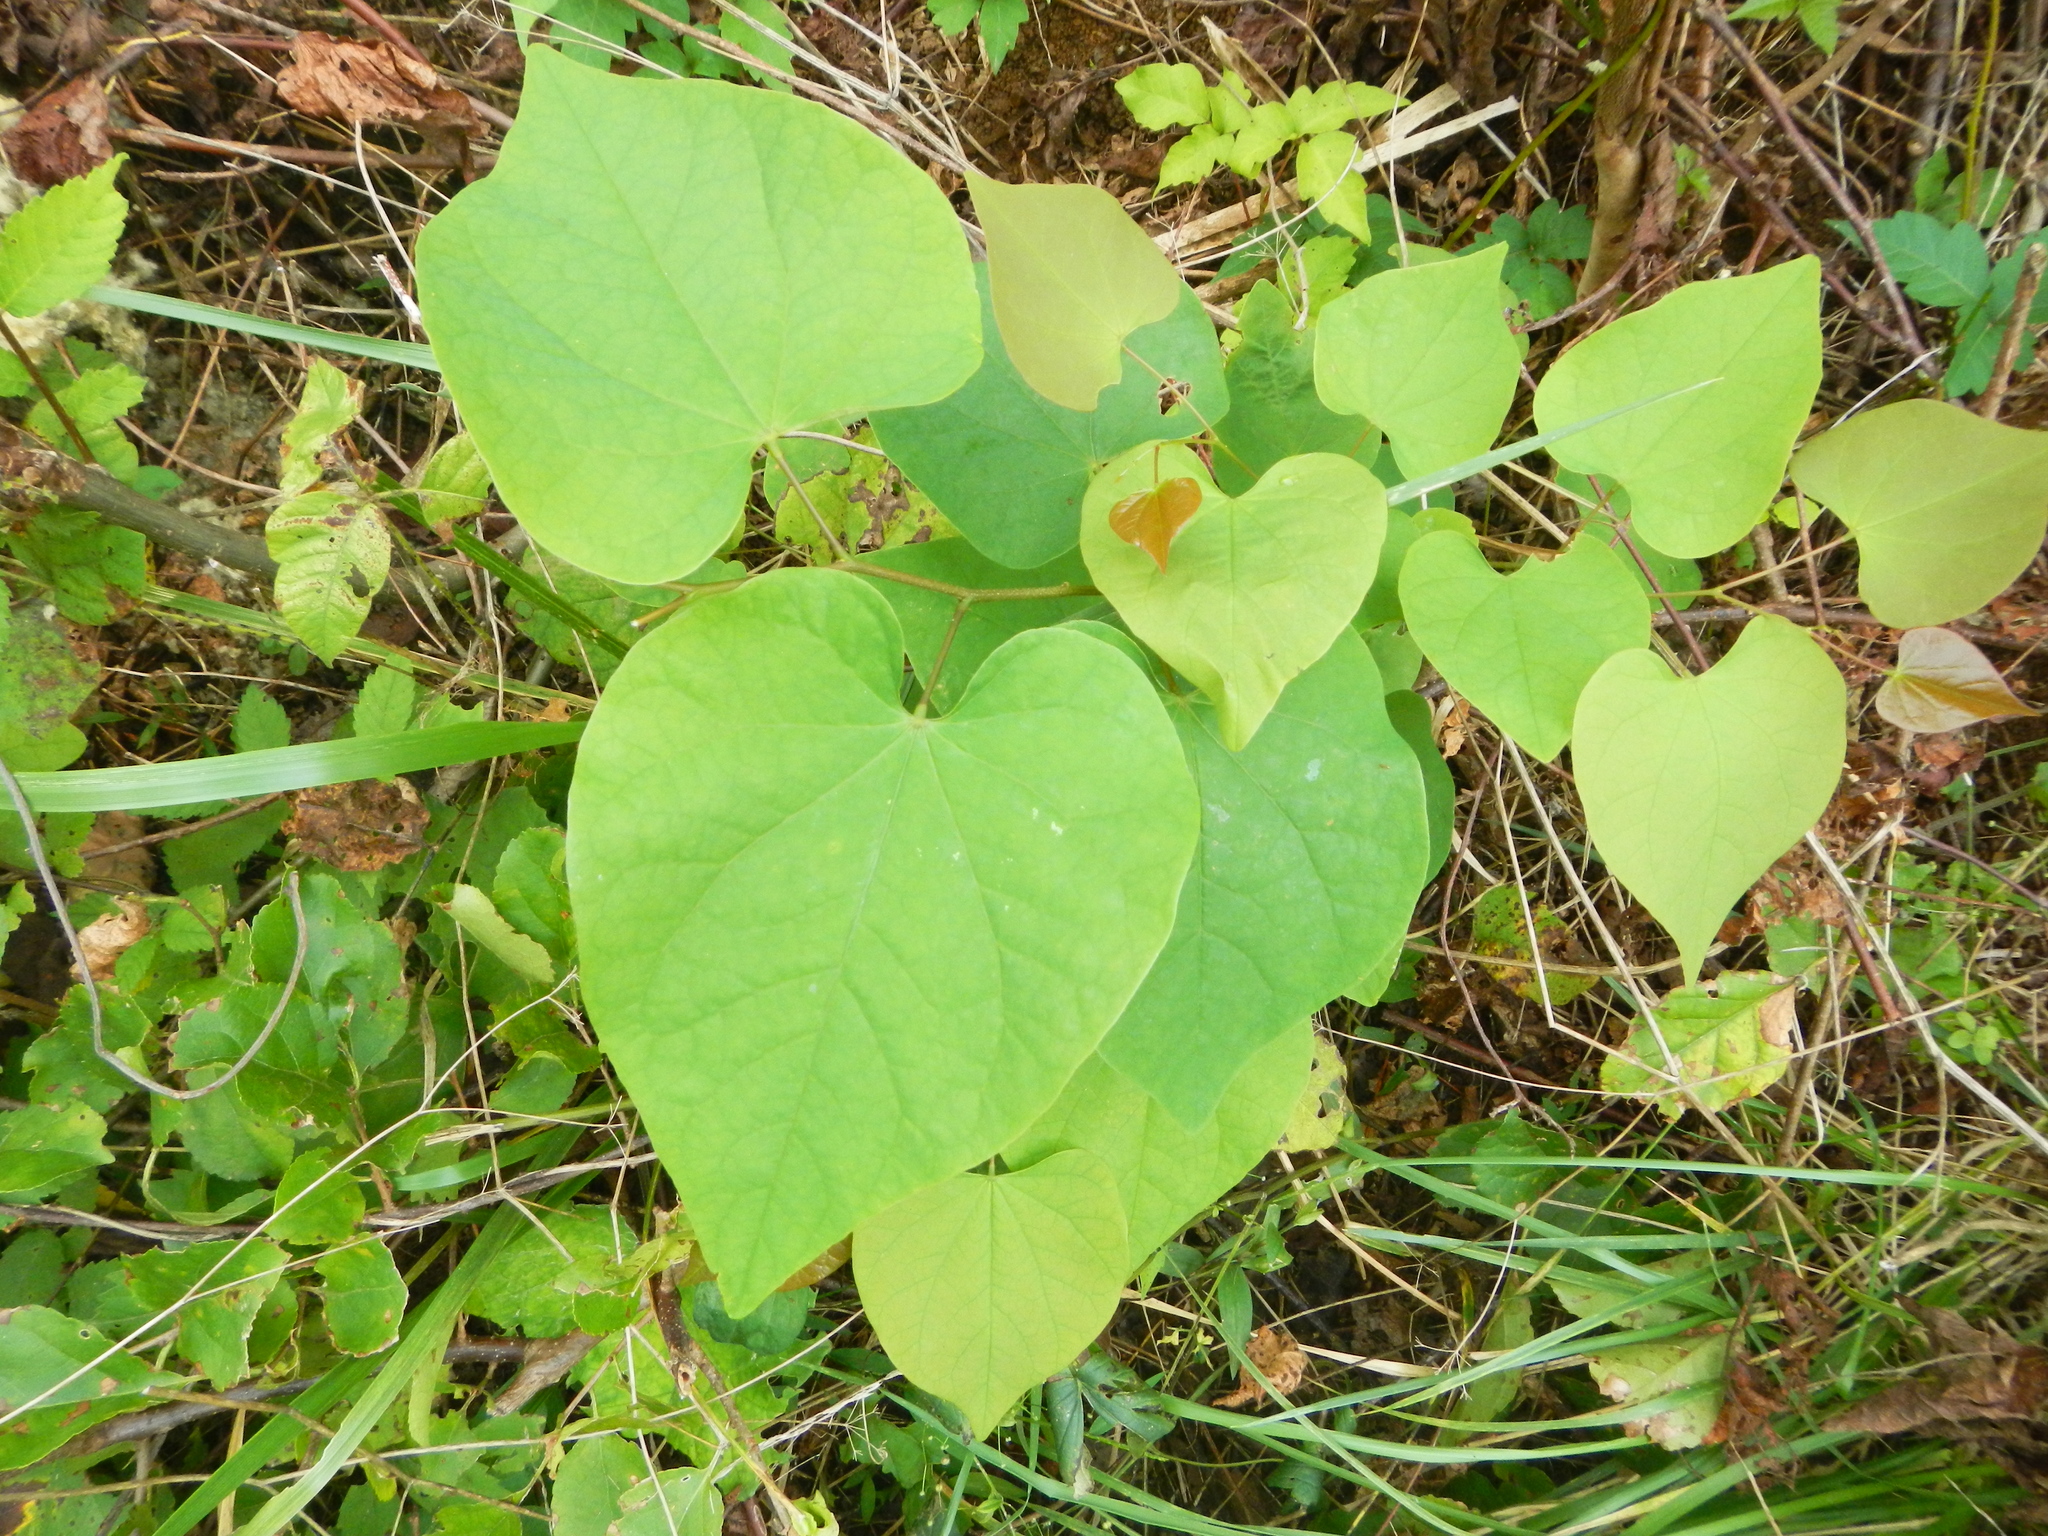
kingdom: Plantae
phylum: Tracheophyta
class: Magnoliopsida
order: Fabales
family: Fabaceae
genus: Cercis
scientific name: Cercis canadensis
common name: Eastern redbud
